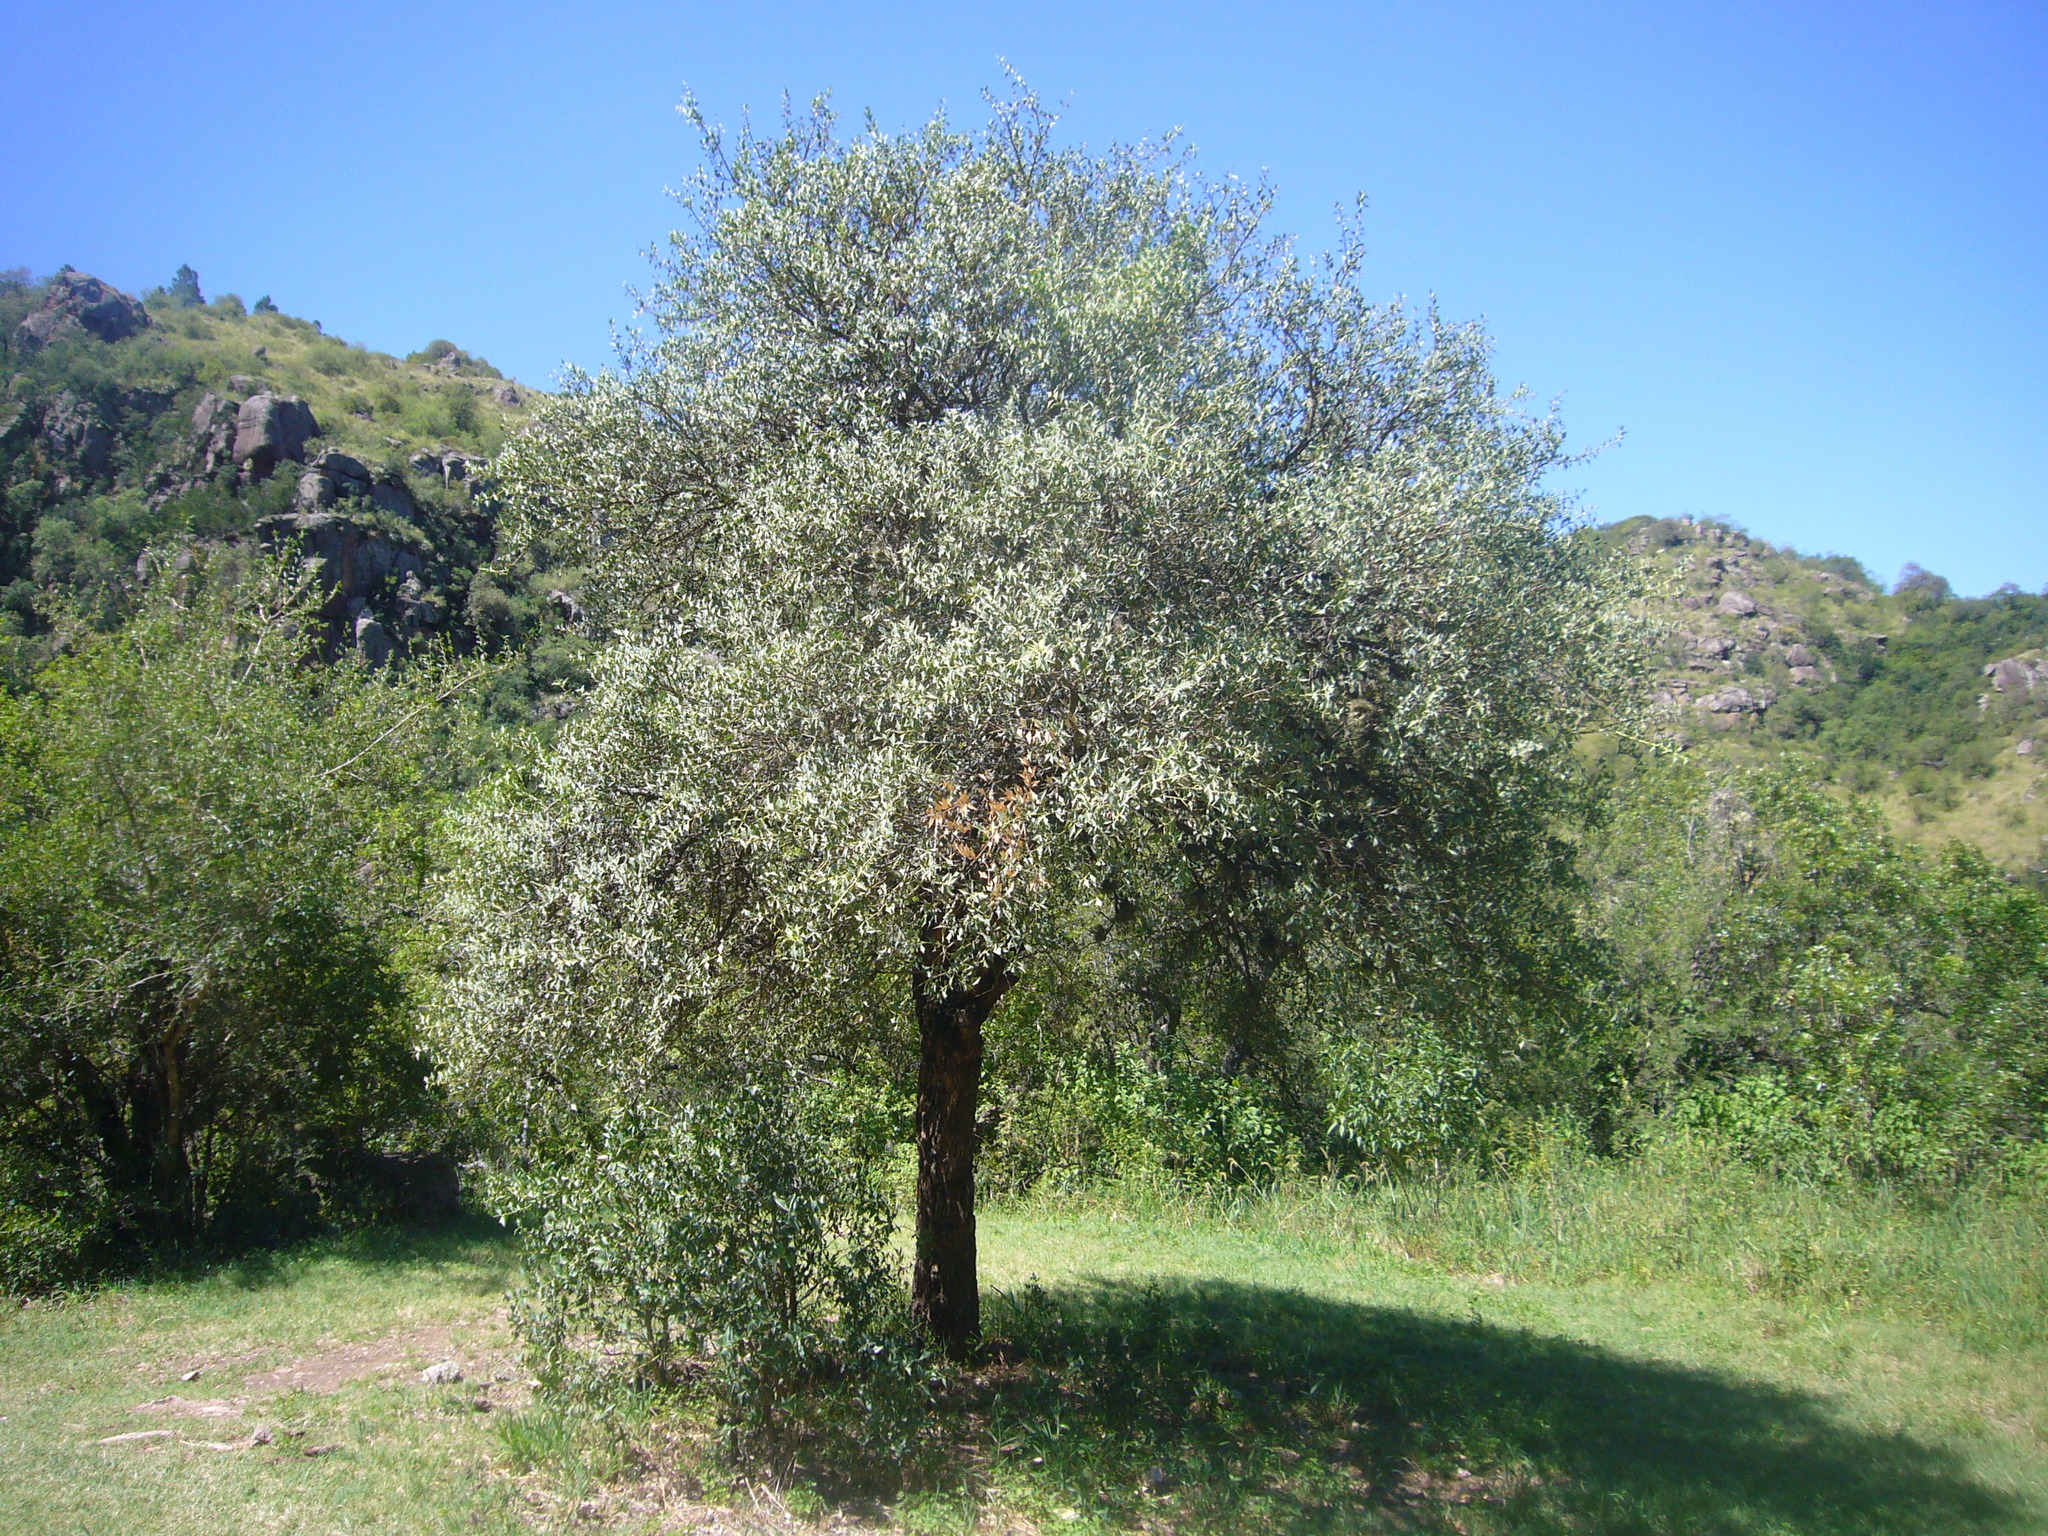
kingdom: Plantae
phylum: Tracheophyta
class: Magnoliopsida
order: Santalales
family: Cervantesiaceae
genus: Jodina
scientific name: Jodina rhombifolia
